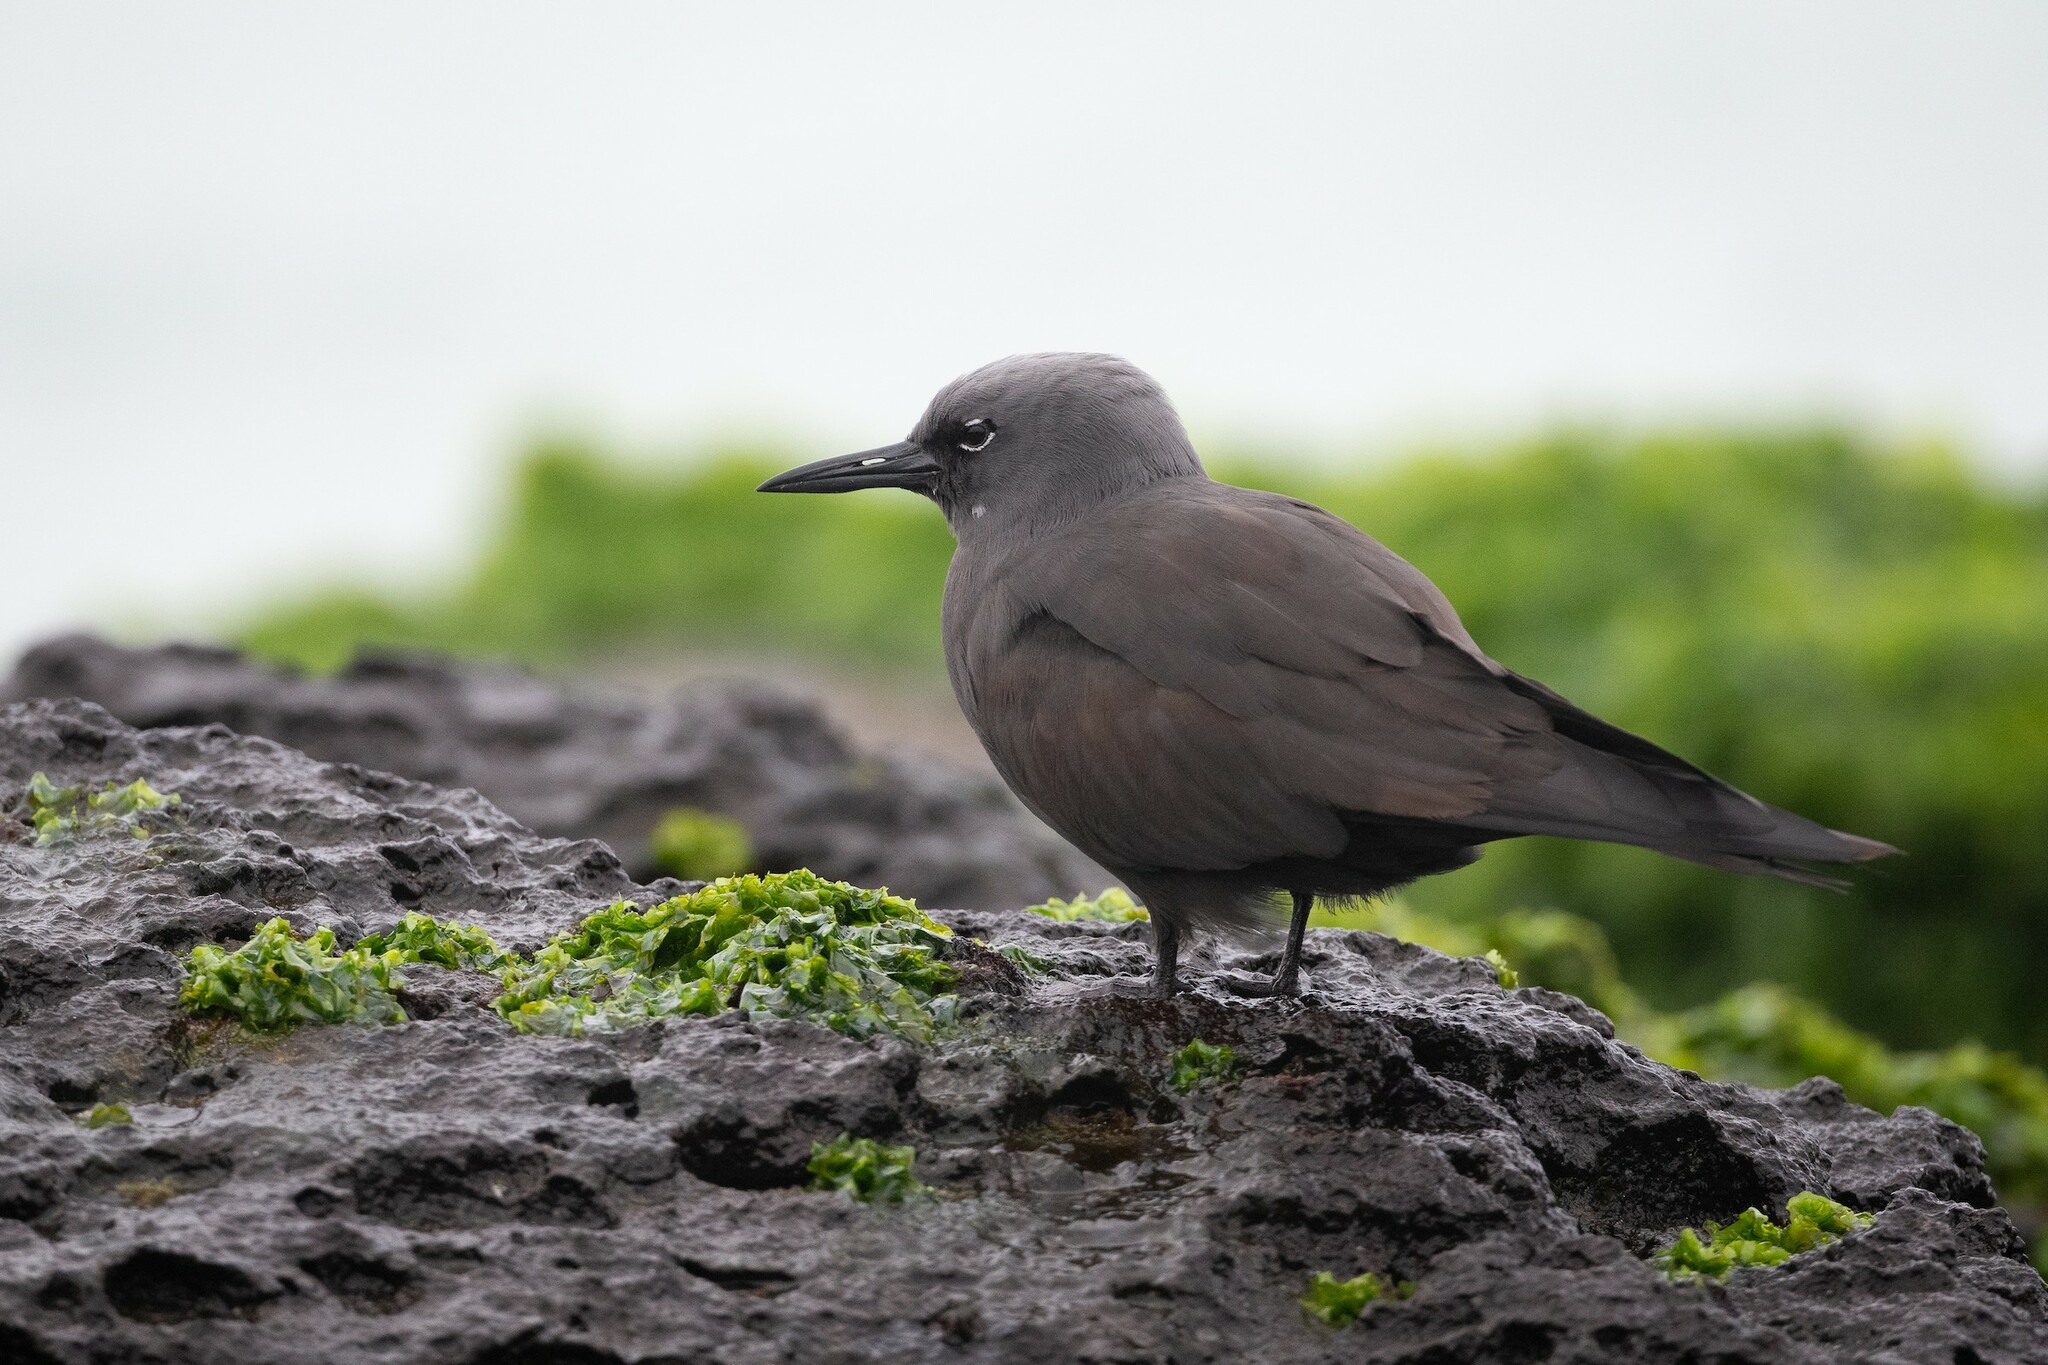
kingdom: Animalia
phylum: Chordata
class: Aves
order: Charadriiformes
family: Laridae
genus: Anous
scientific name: Anous stolidus
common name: Brown noddy
